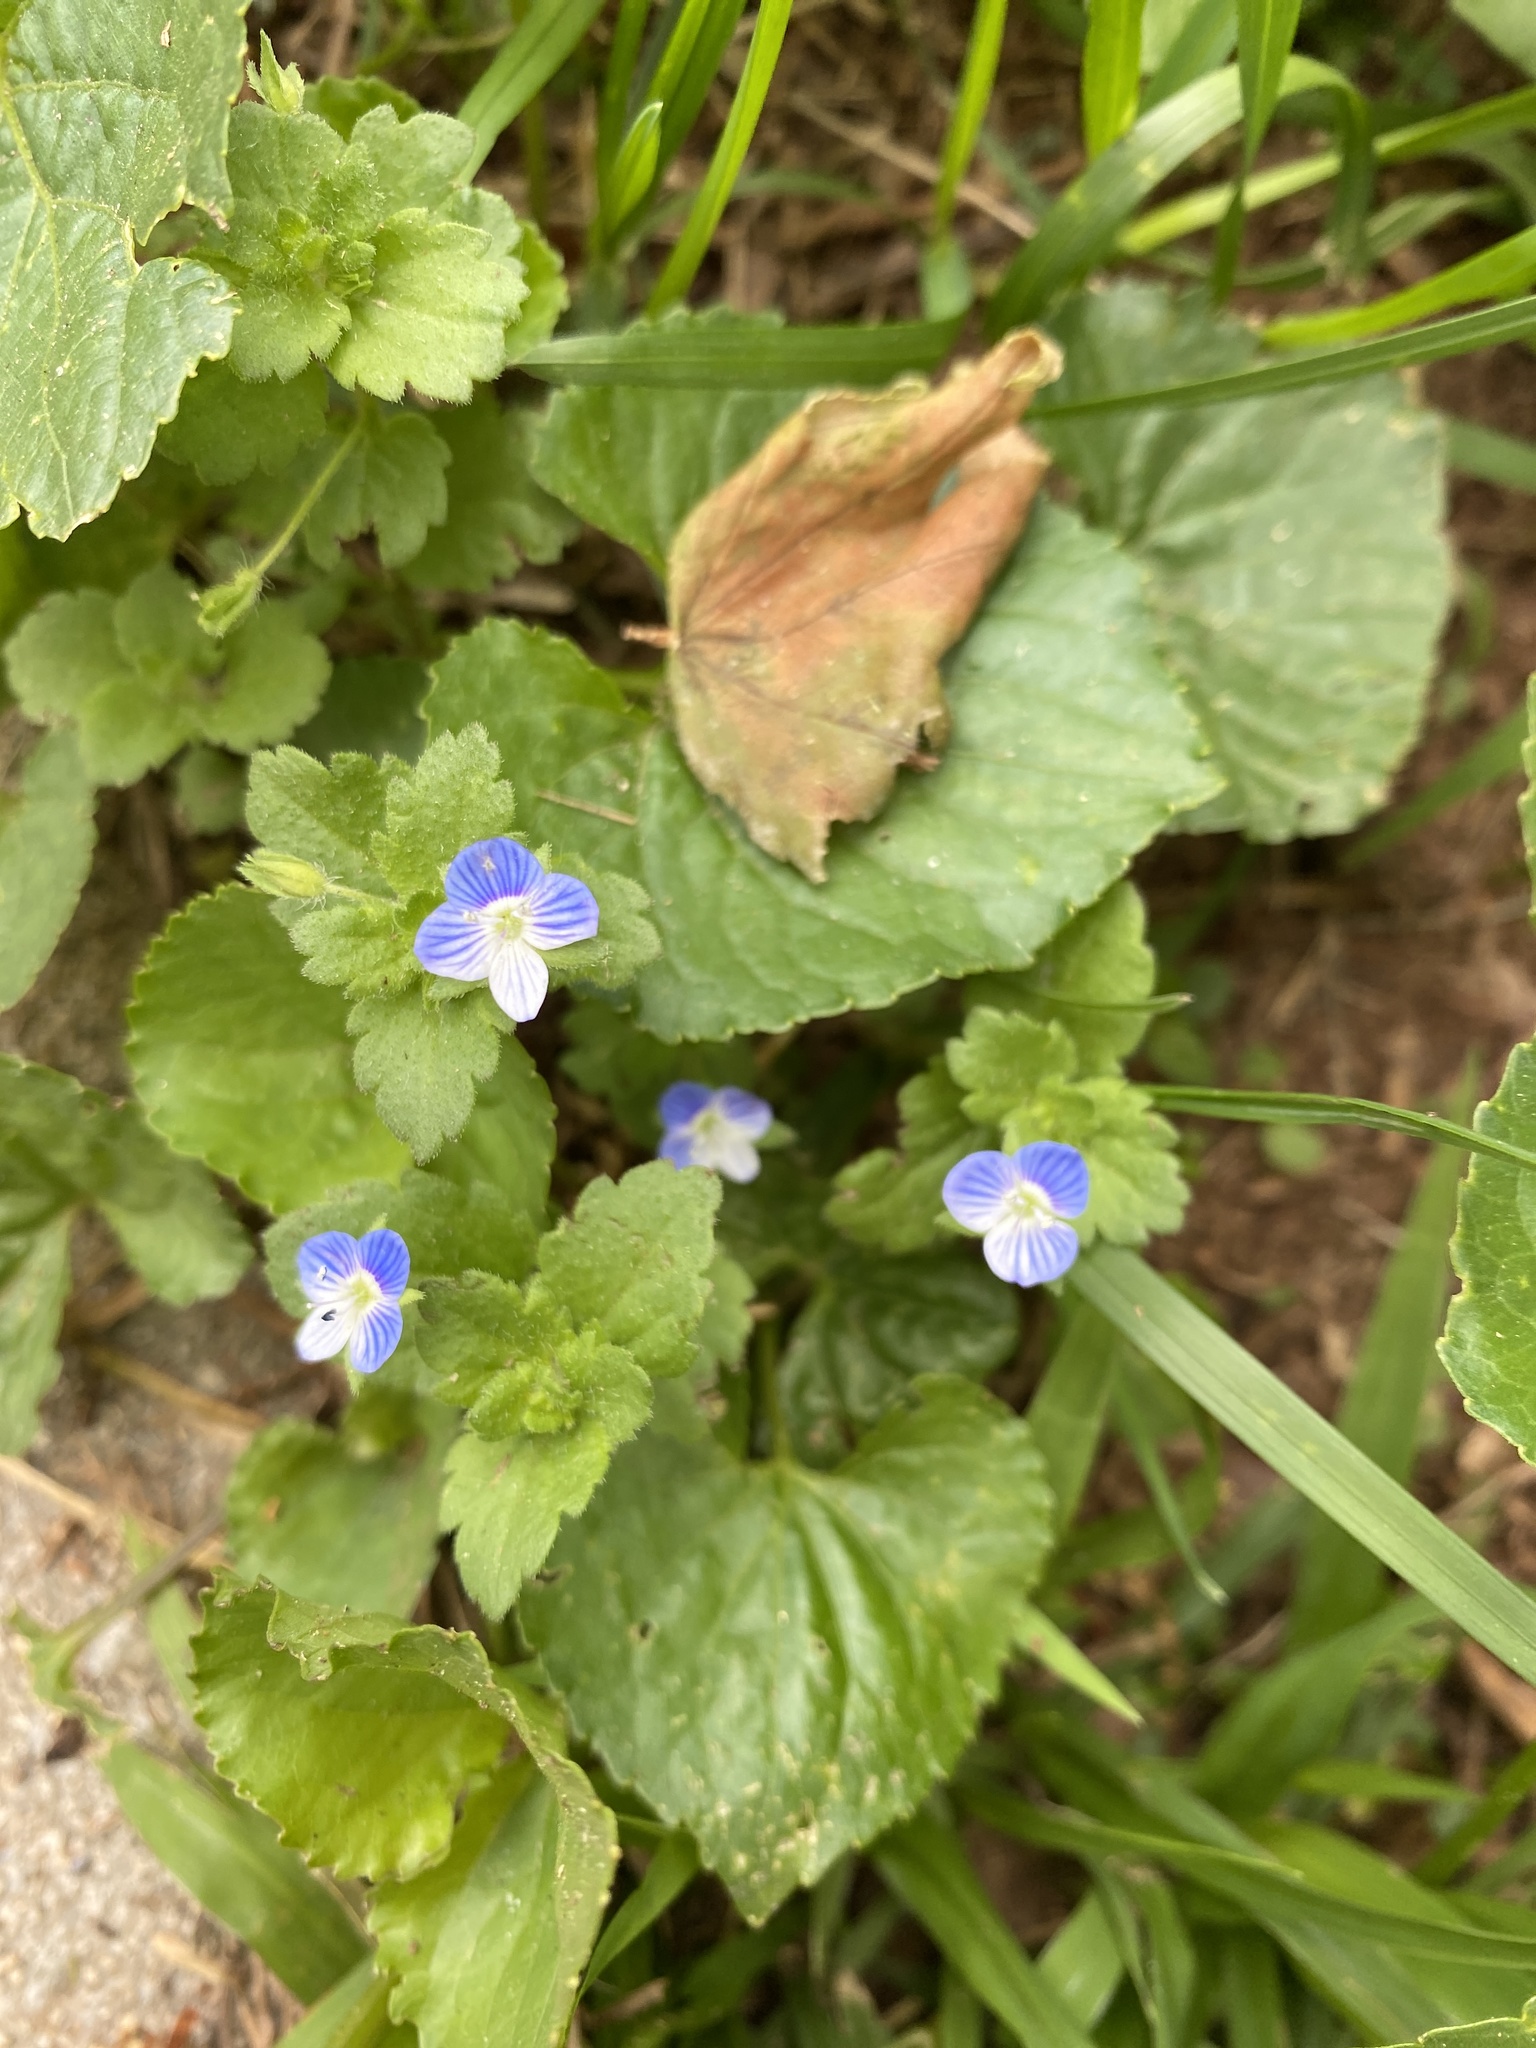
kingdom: Plantae
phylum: Tracheophyta
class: Magnoliopsida
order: Lamiales
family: Plantaginaceae
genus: Veronica
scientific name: Veronica persica
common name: Common field-speedwell
